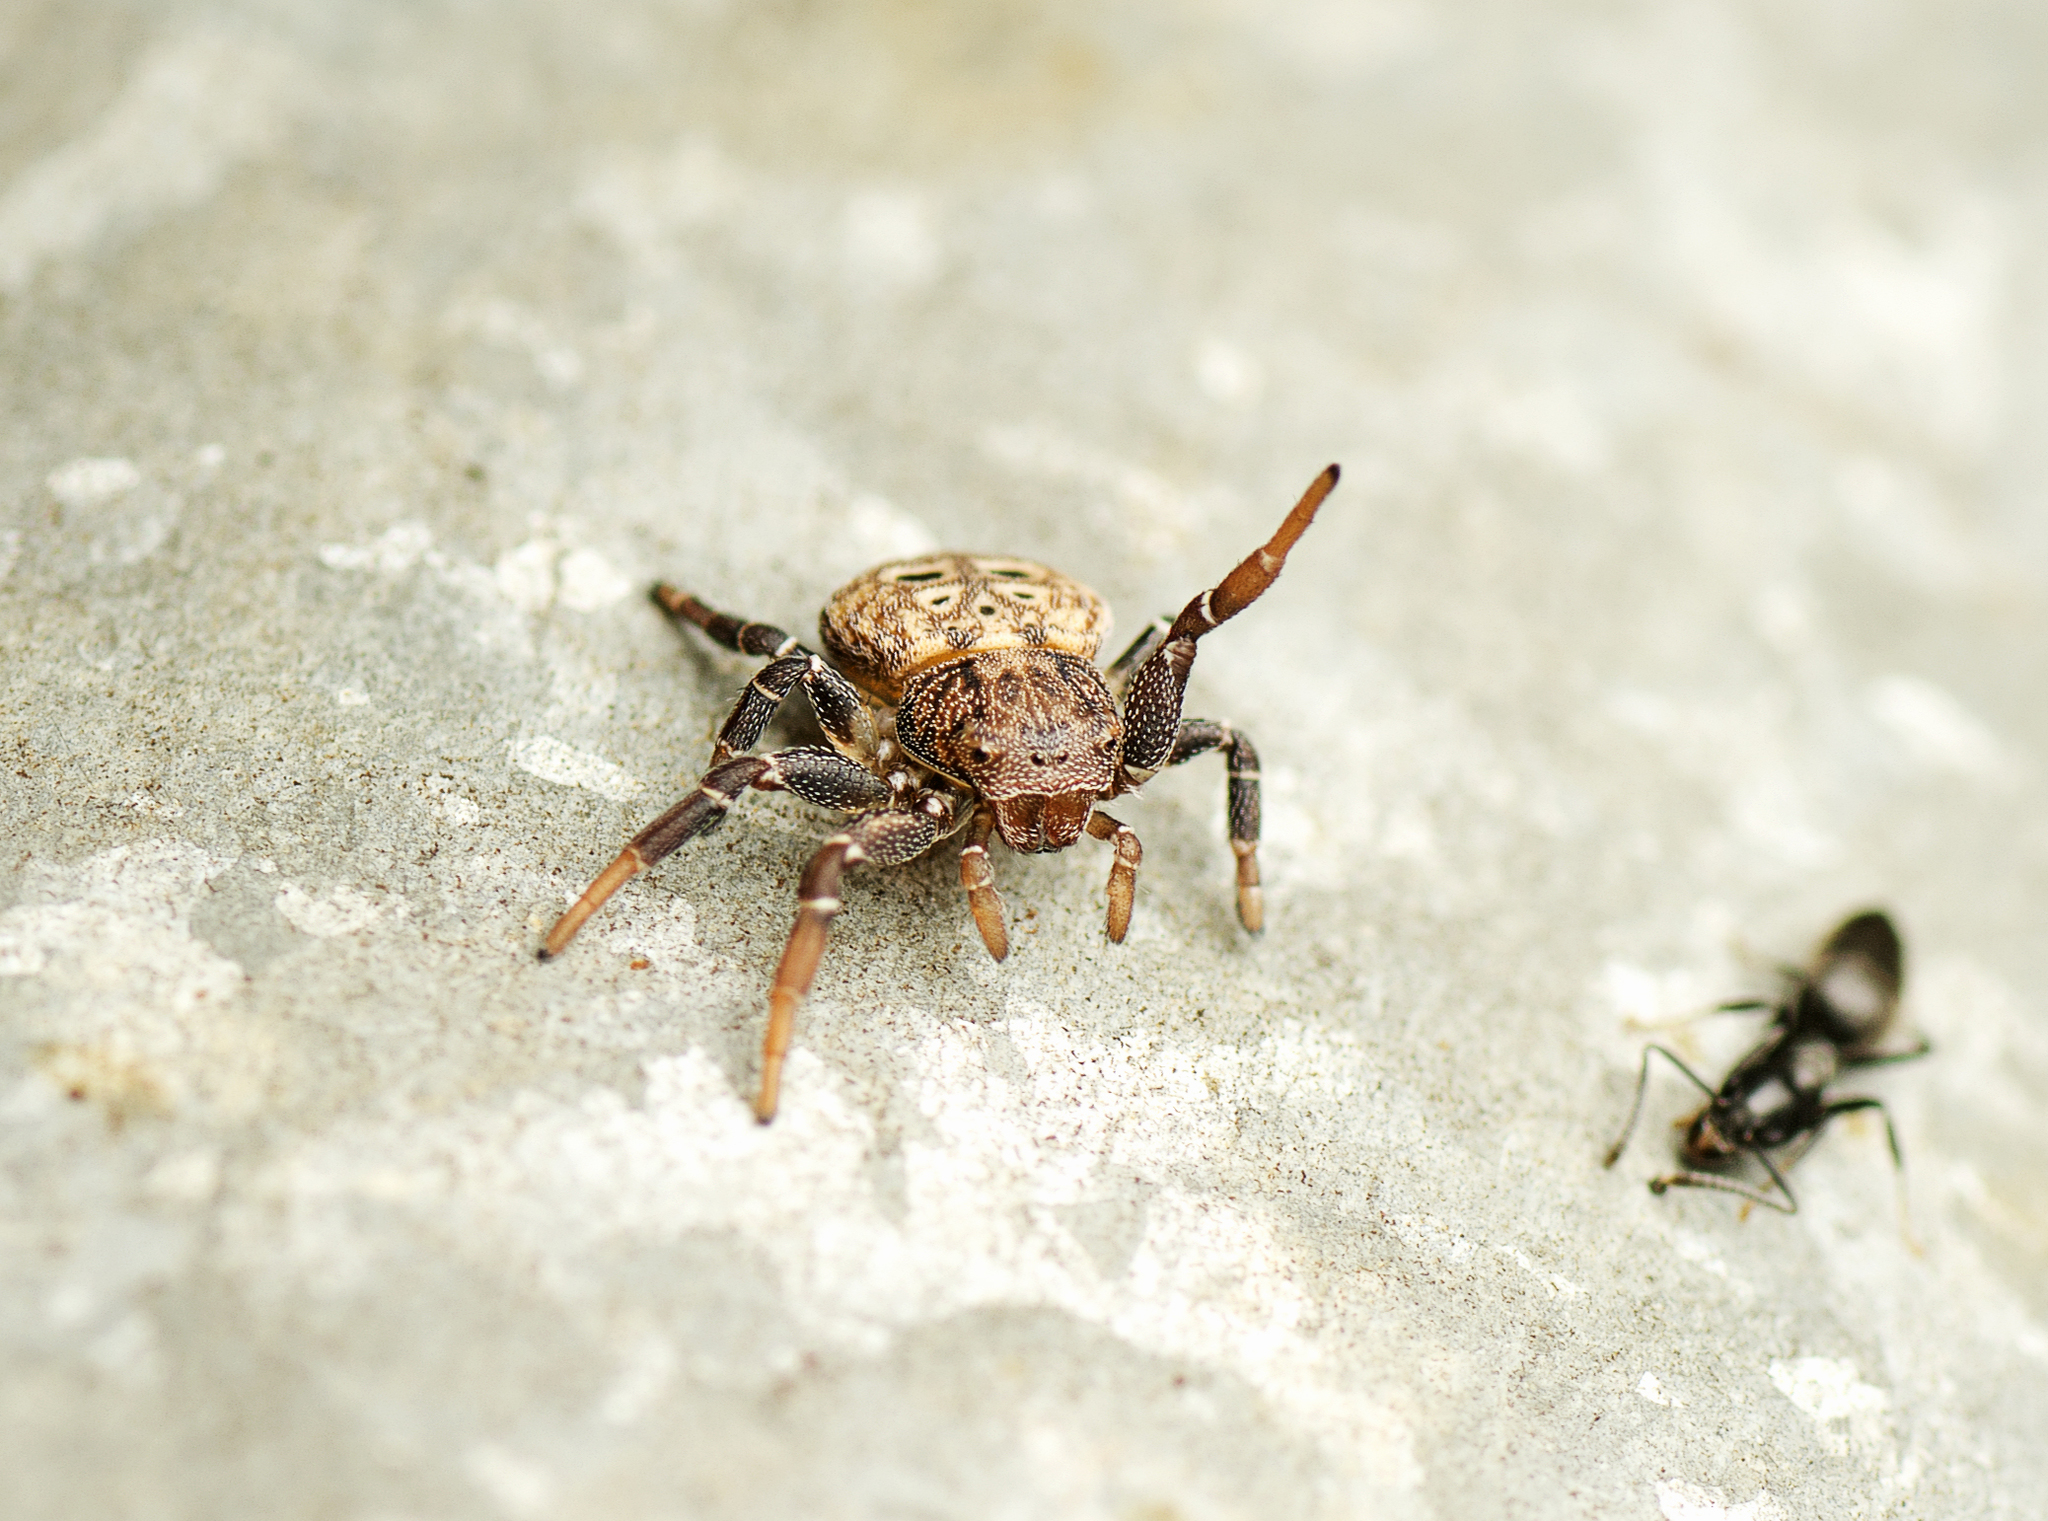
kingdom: Animalia
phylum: Arthropoda
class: Arachnida
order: Araneae
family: Thomisidae
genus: Cymbacha
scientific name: Cymbacha ocellata
